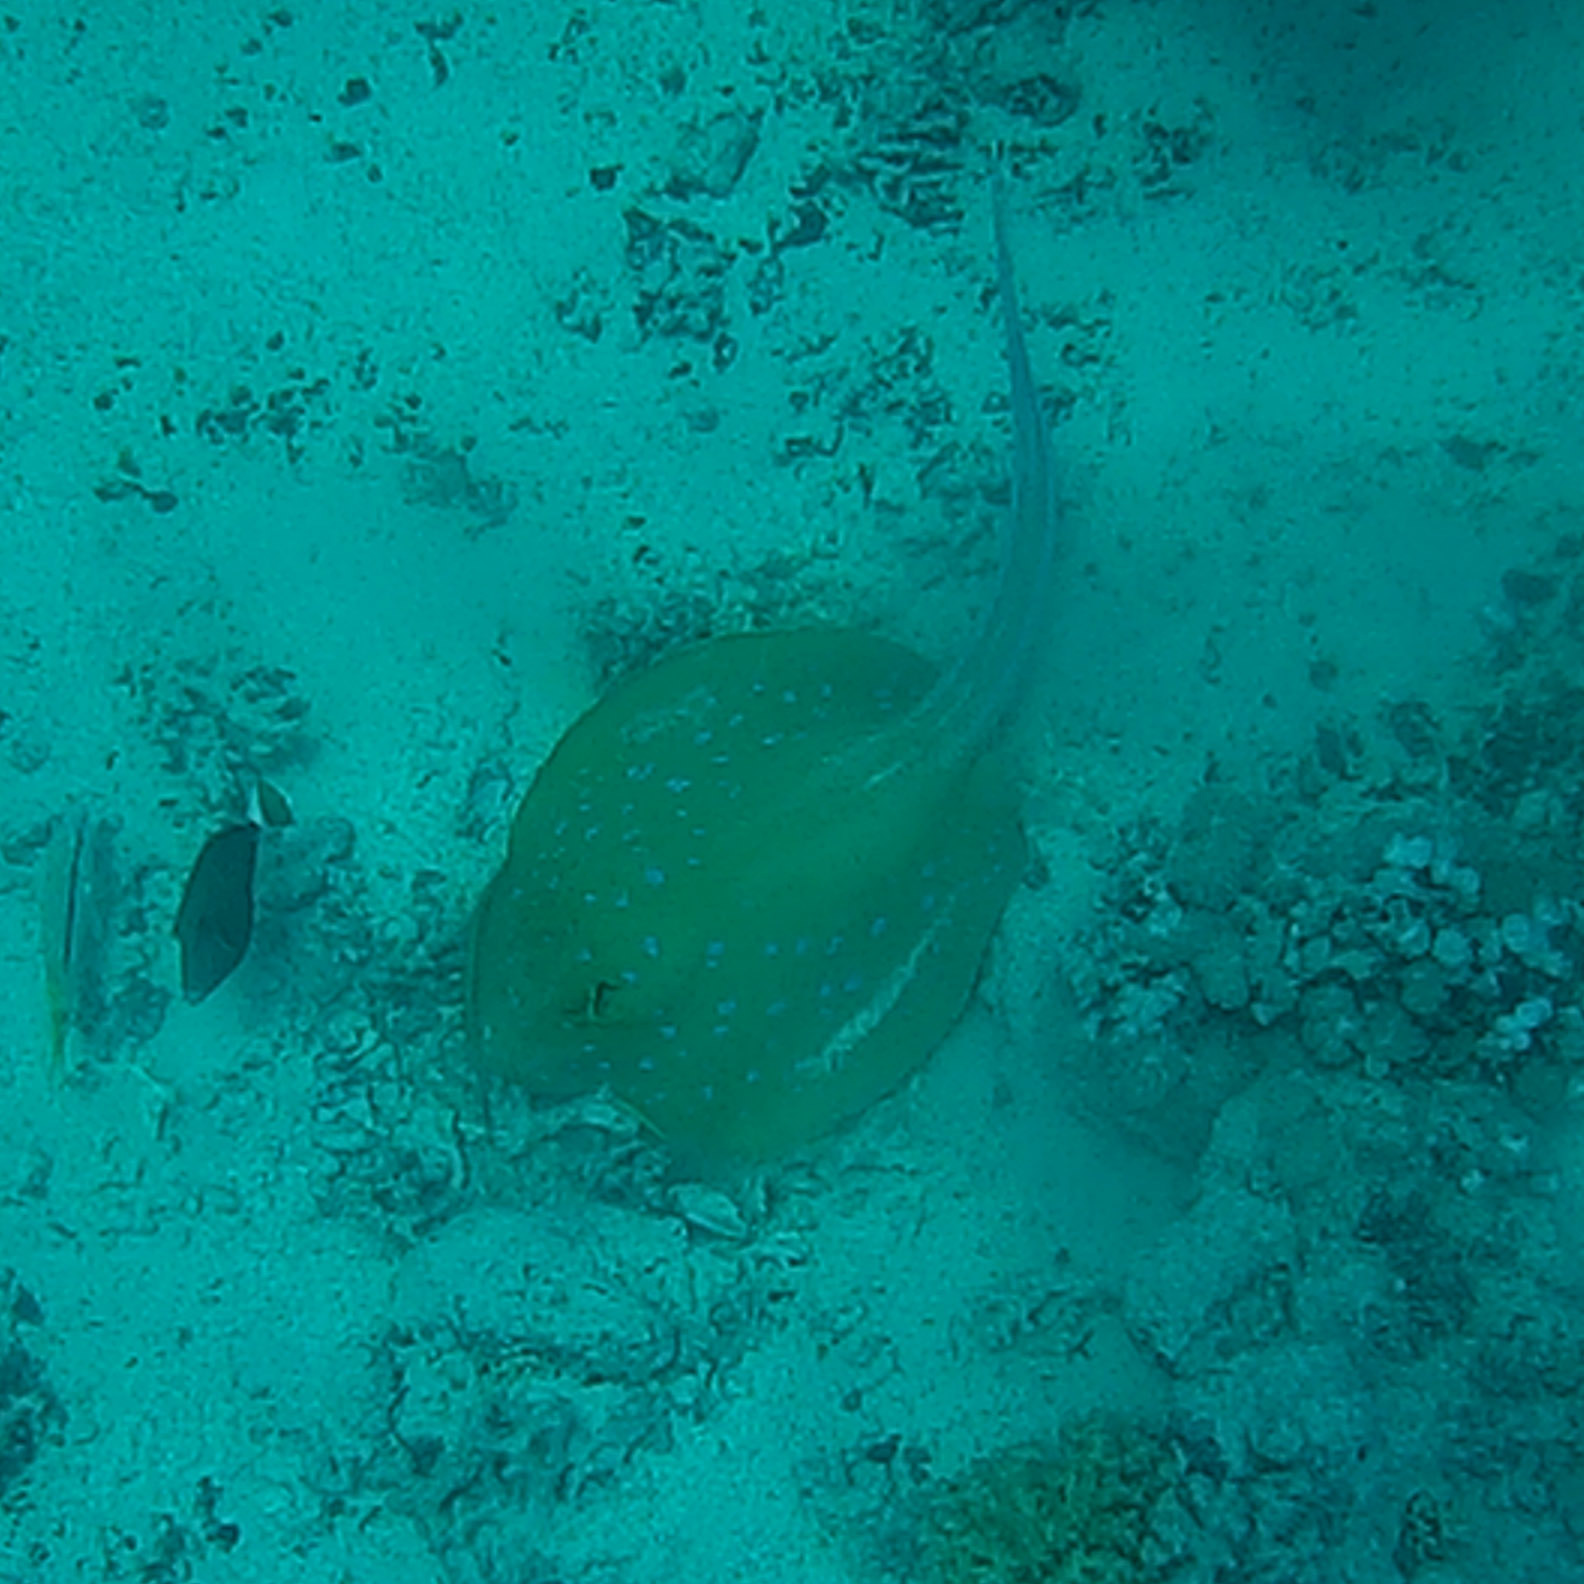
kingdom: Animalia
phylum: Chordata
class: Elasmobranchii
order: Myliobatiformes
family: Dasyatidae
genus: Taeniura
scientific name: Taeniura lymma
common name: Bluespotted ribbontail ray
